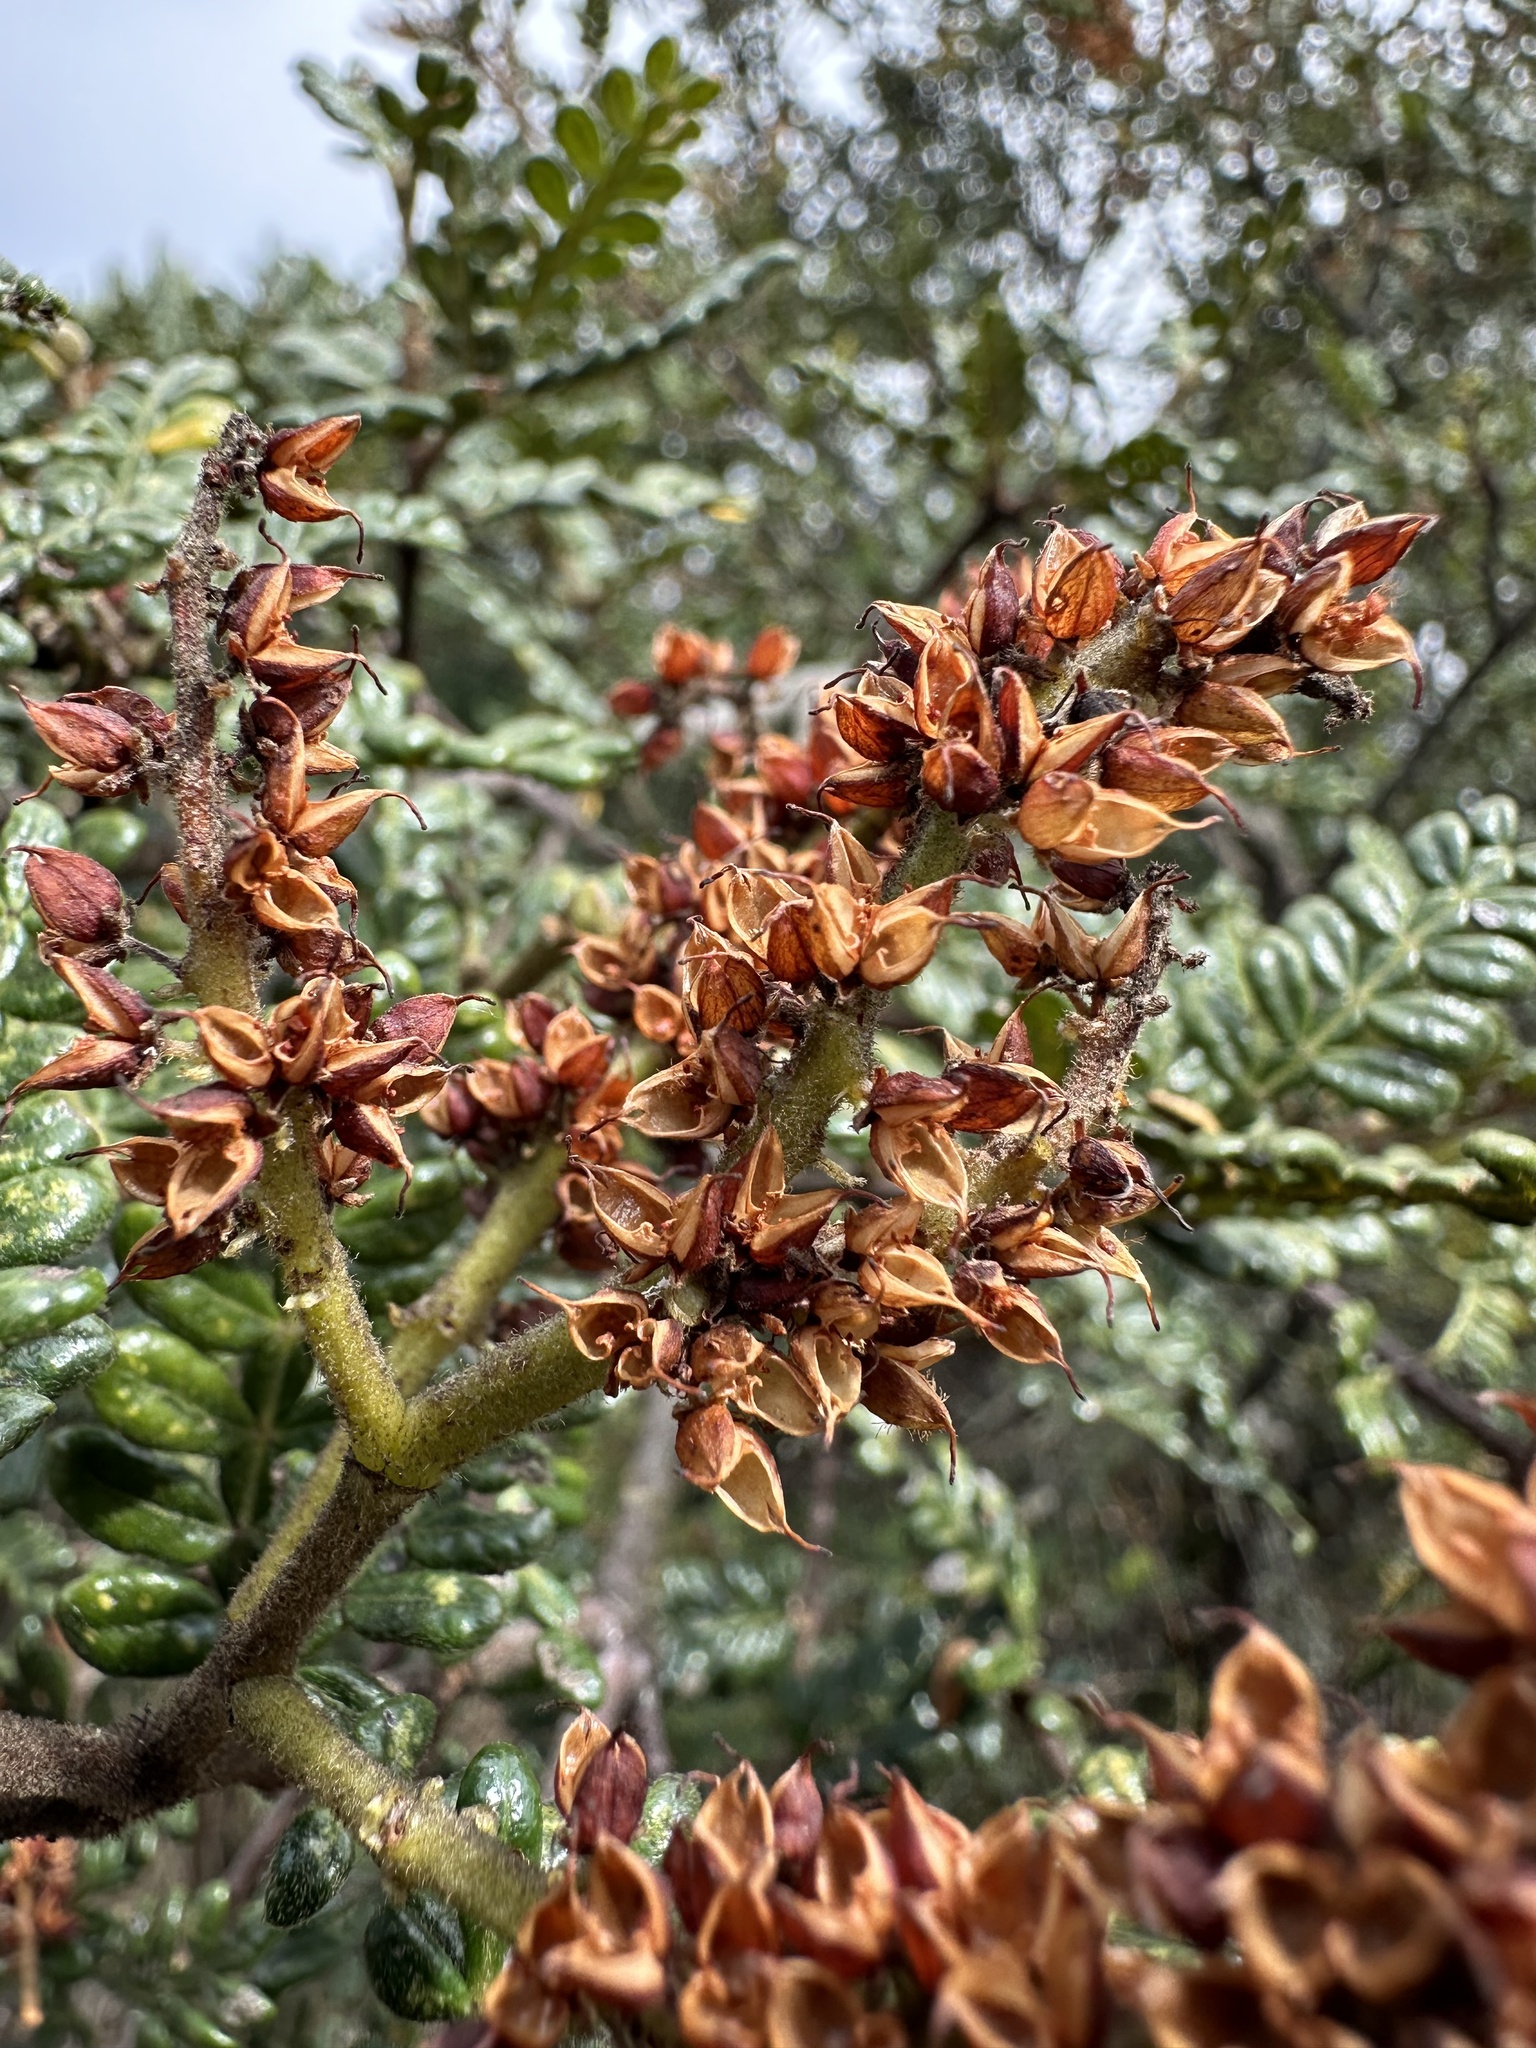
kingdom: Plantae
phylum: Tracheophyta
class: Magnoliopsida
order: Oxalidales
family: Cunoniaceae
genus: Weinmannia
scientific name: Weinmannia tomentosa
